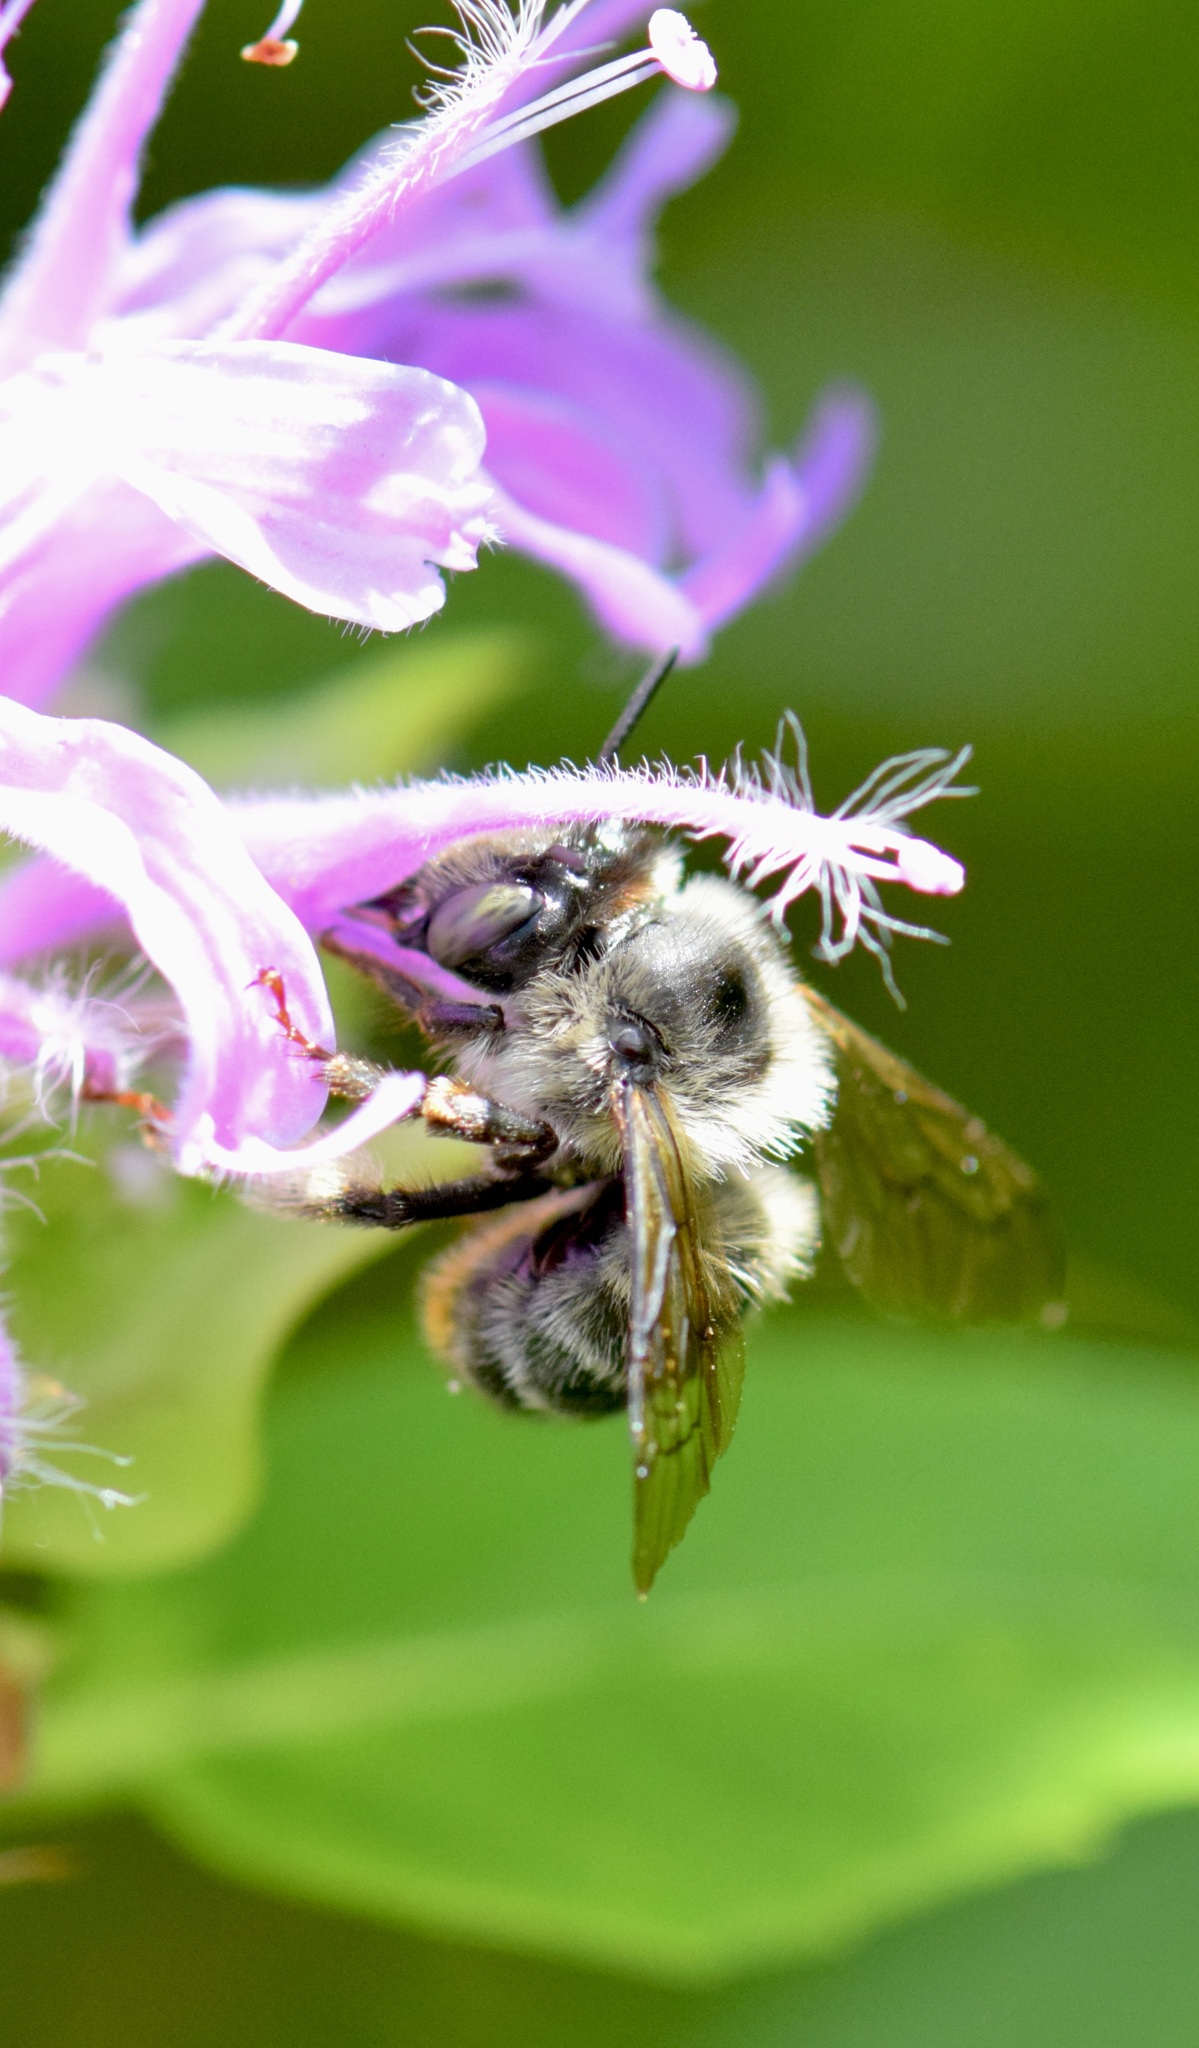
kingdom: Animalia
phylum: Arthropoda
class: Insecta
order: Hymenoptera
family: Apidae
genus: Anthophora
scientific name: Anthophora terminalis
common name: Orange-tipped wood-digger bee
